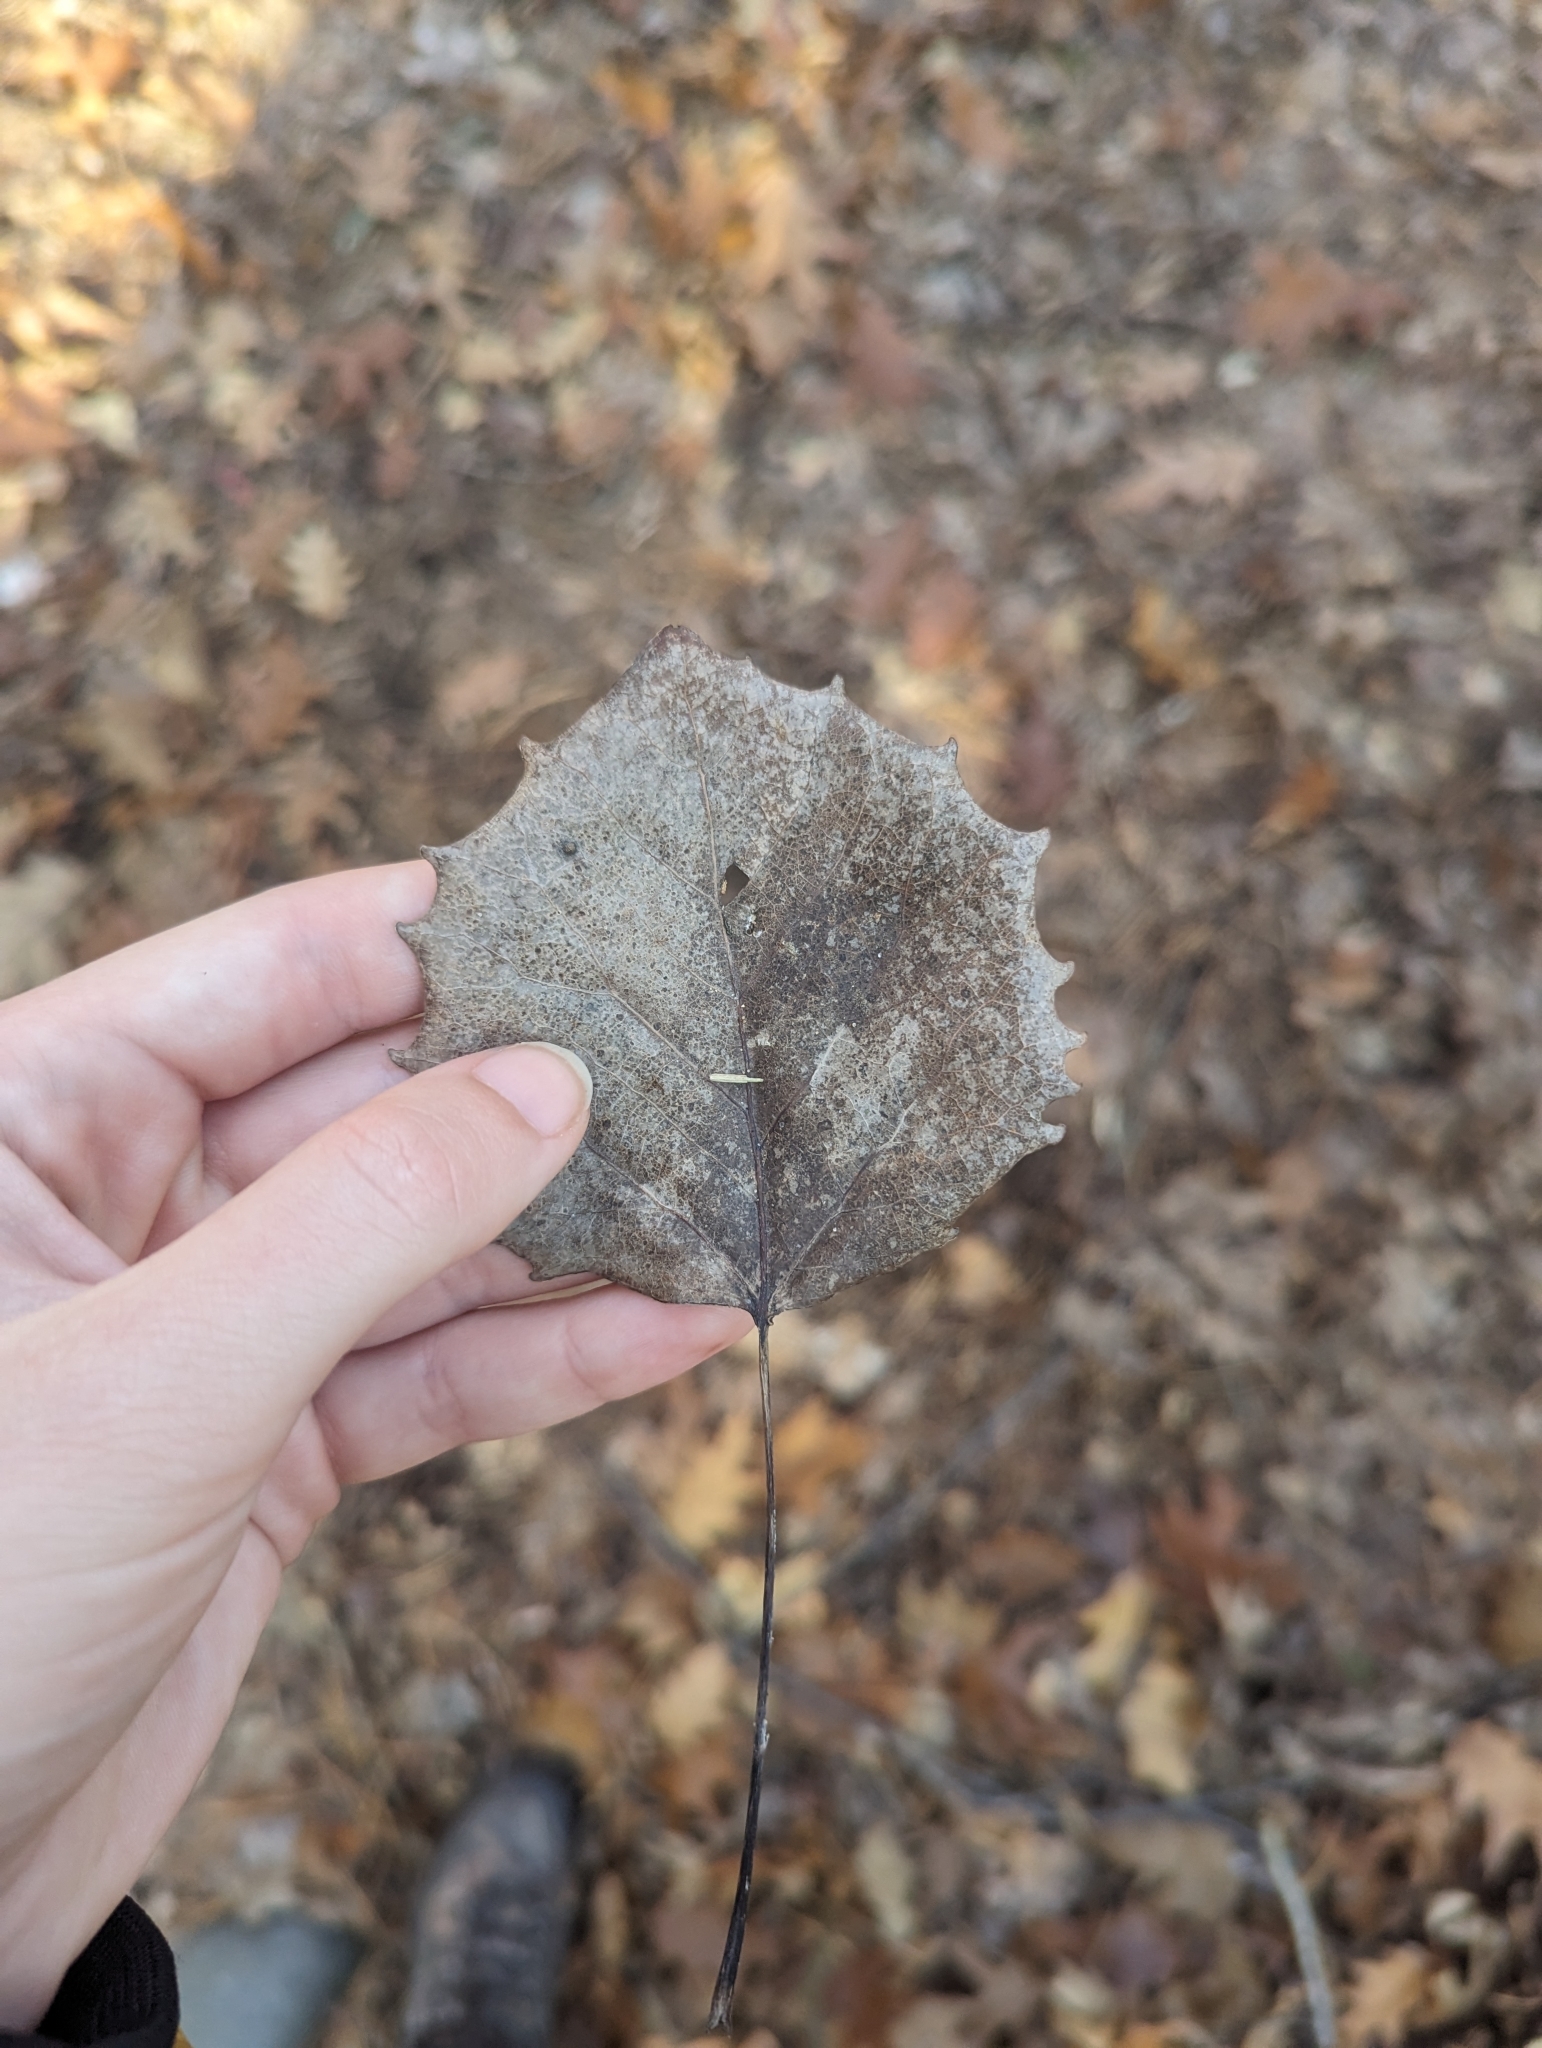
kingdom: Plantae
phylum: Tracheophyta
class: Magnoliopsida
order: Malpighiales
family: Salicaceae
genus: Populus
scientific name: Populus grandidentata
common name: Bigtooth aspen
